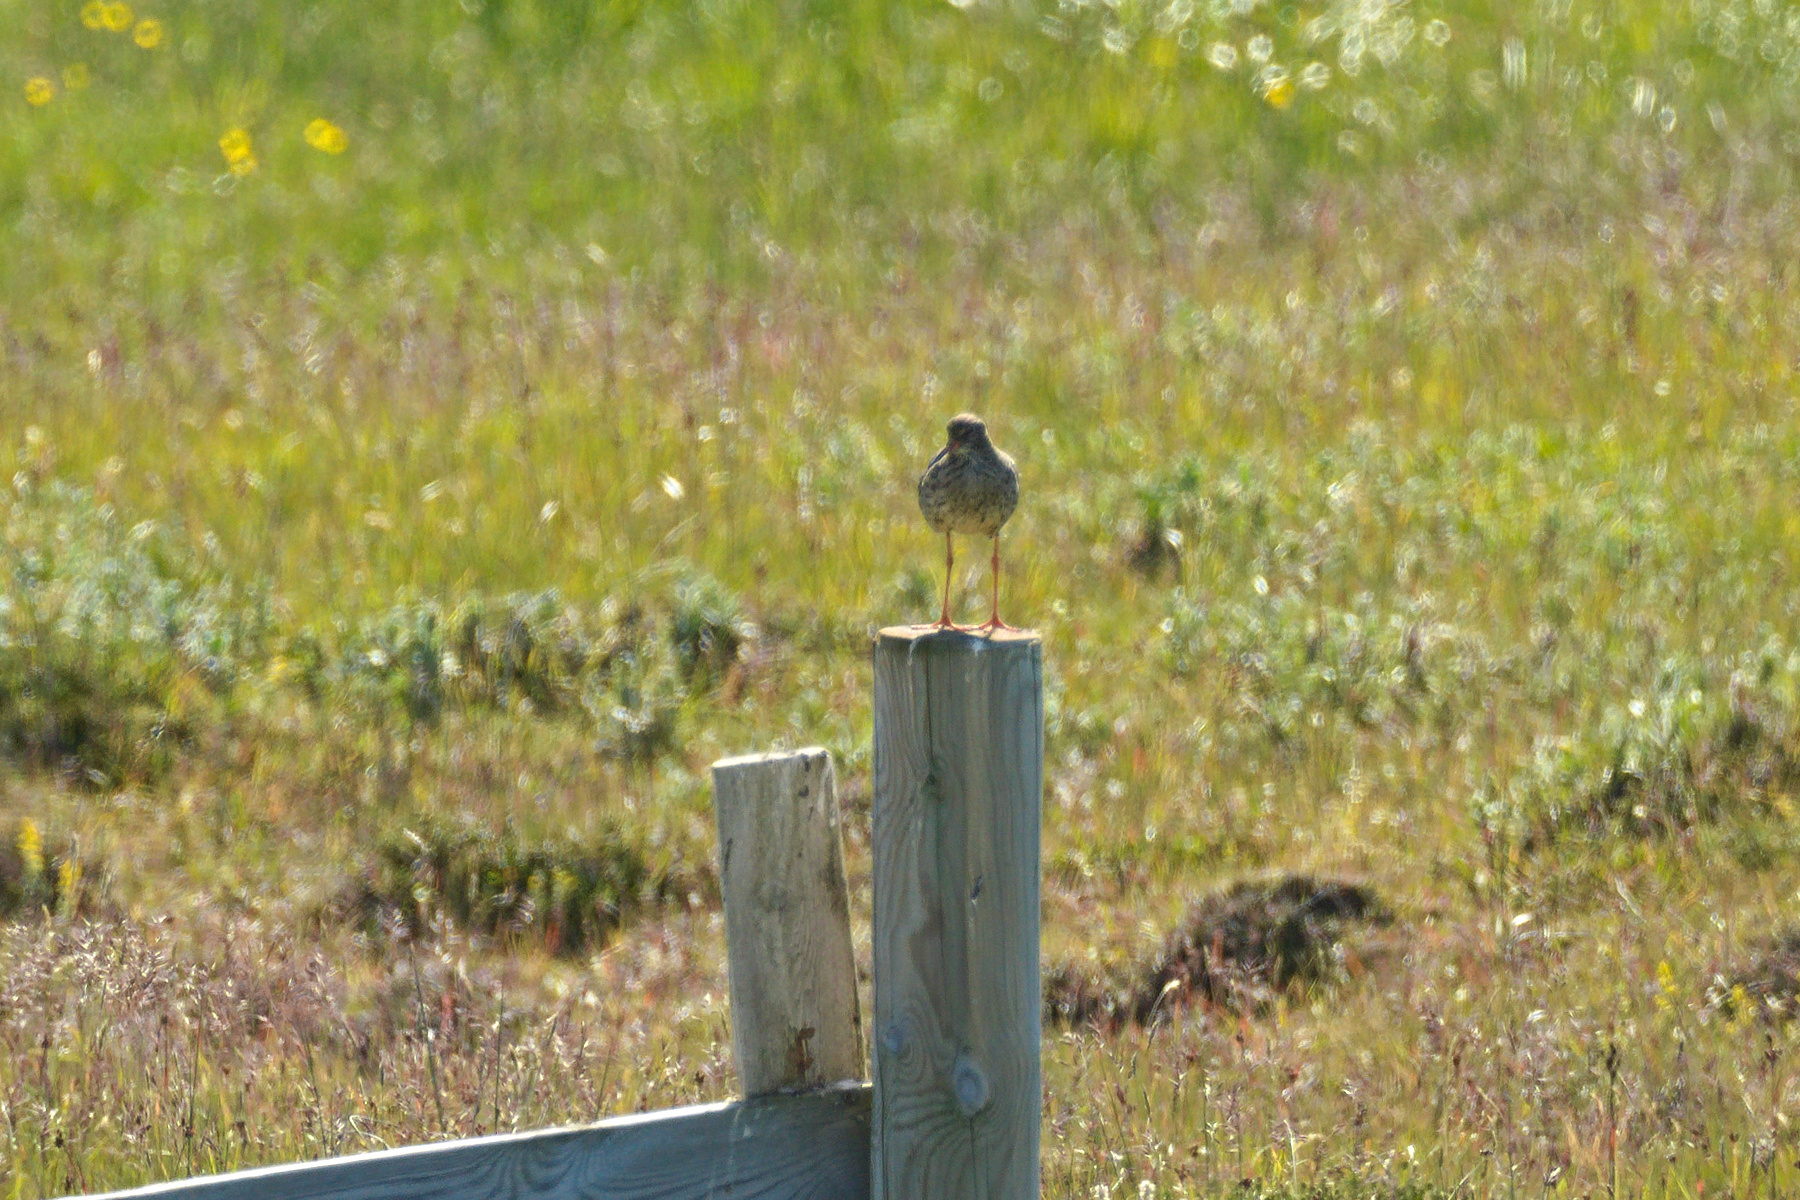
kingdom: Animalia
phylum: Chordata
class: Aves
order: Charadriiformes
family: Scolopacidae
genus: Tringa
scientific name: Tringa totanus
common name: Common redshank
